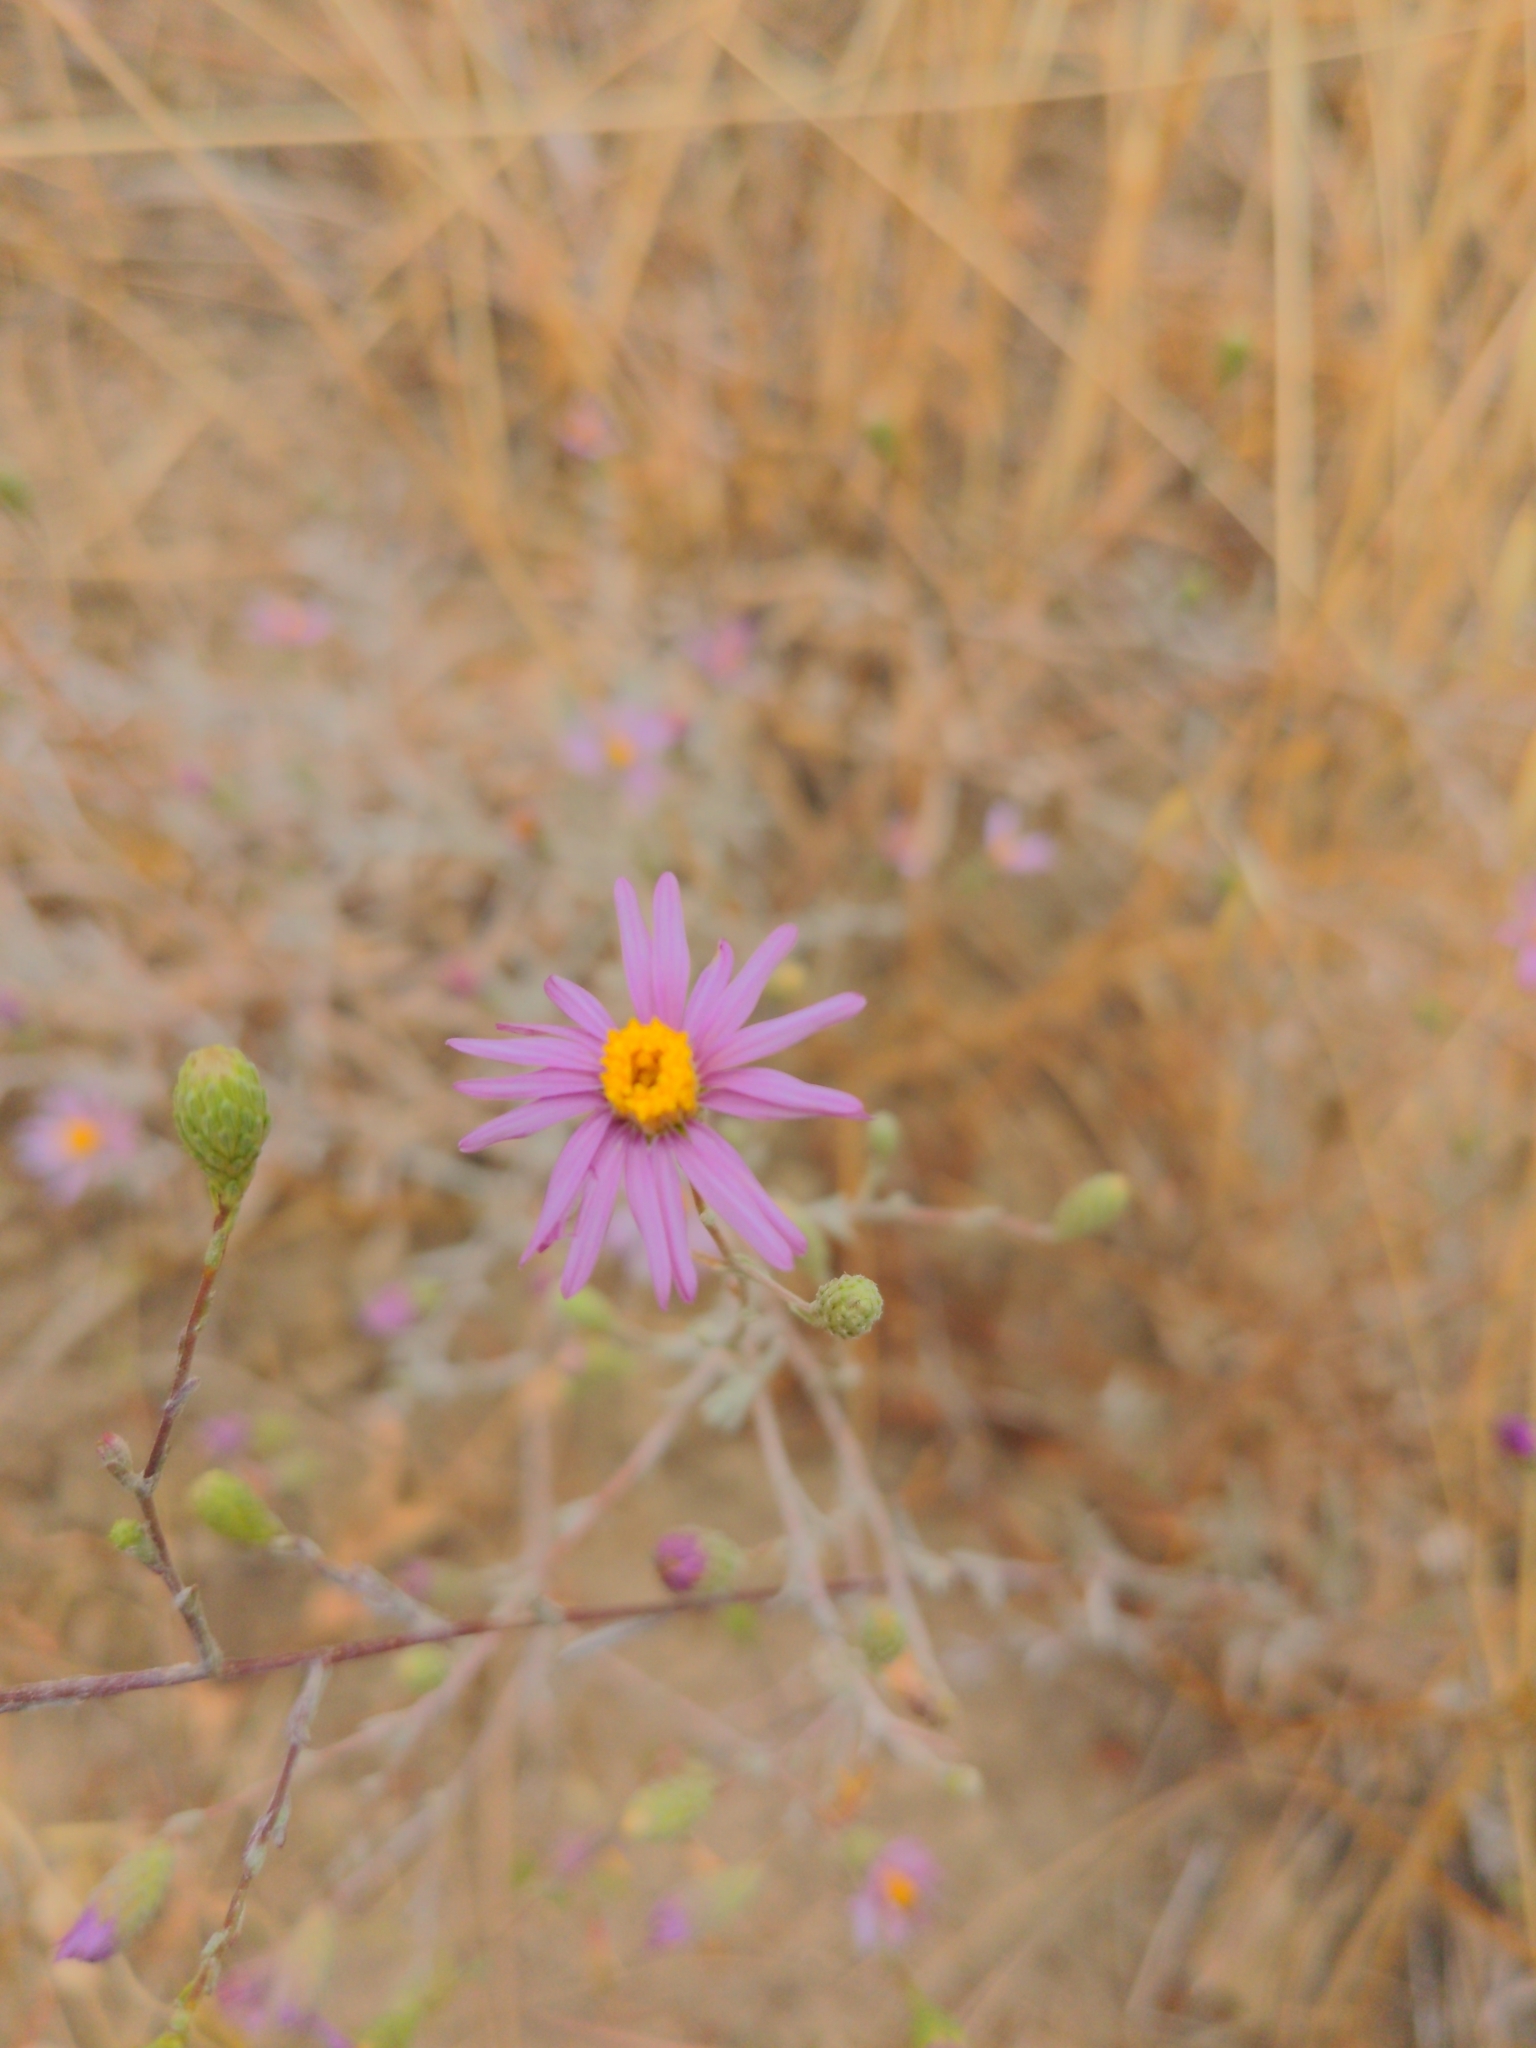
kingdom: Plantae
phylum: Tracheophyta
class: Magnoliopsida
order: Asterales
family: Asteraceae
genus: Corethrogyne
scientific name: Corethrogyne filaginifolia
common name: Sand-aster
